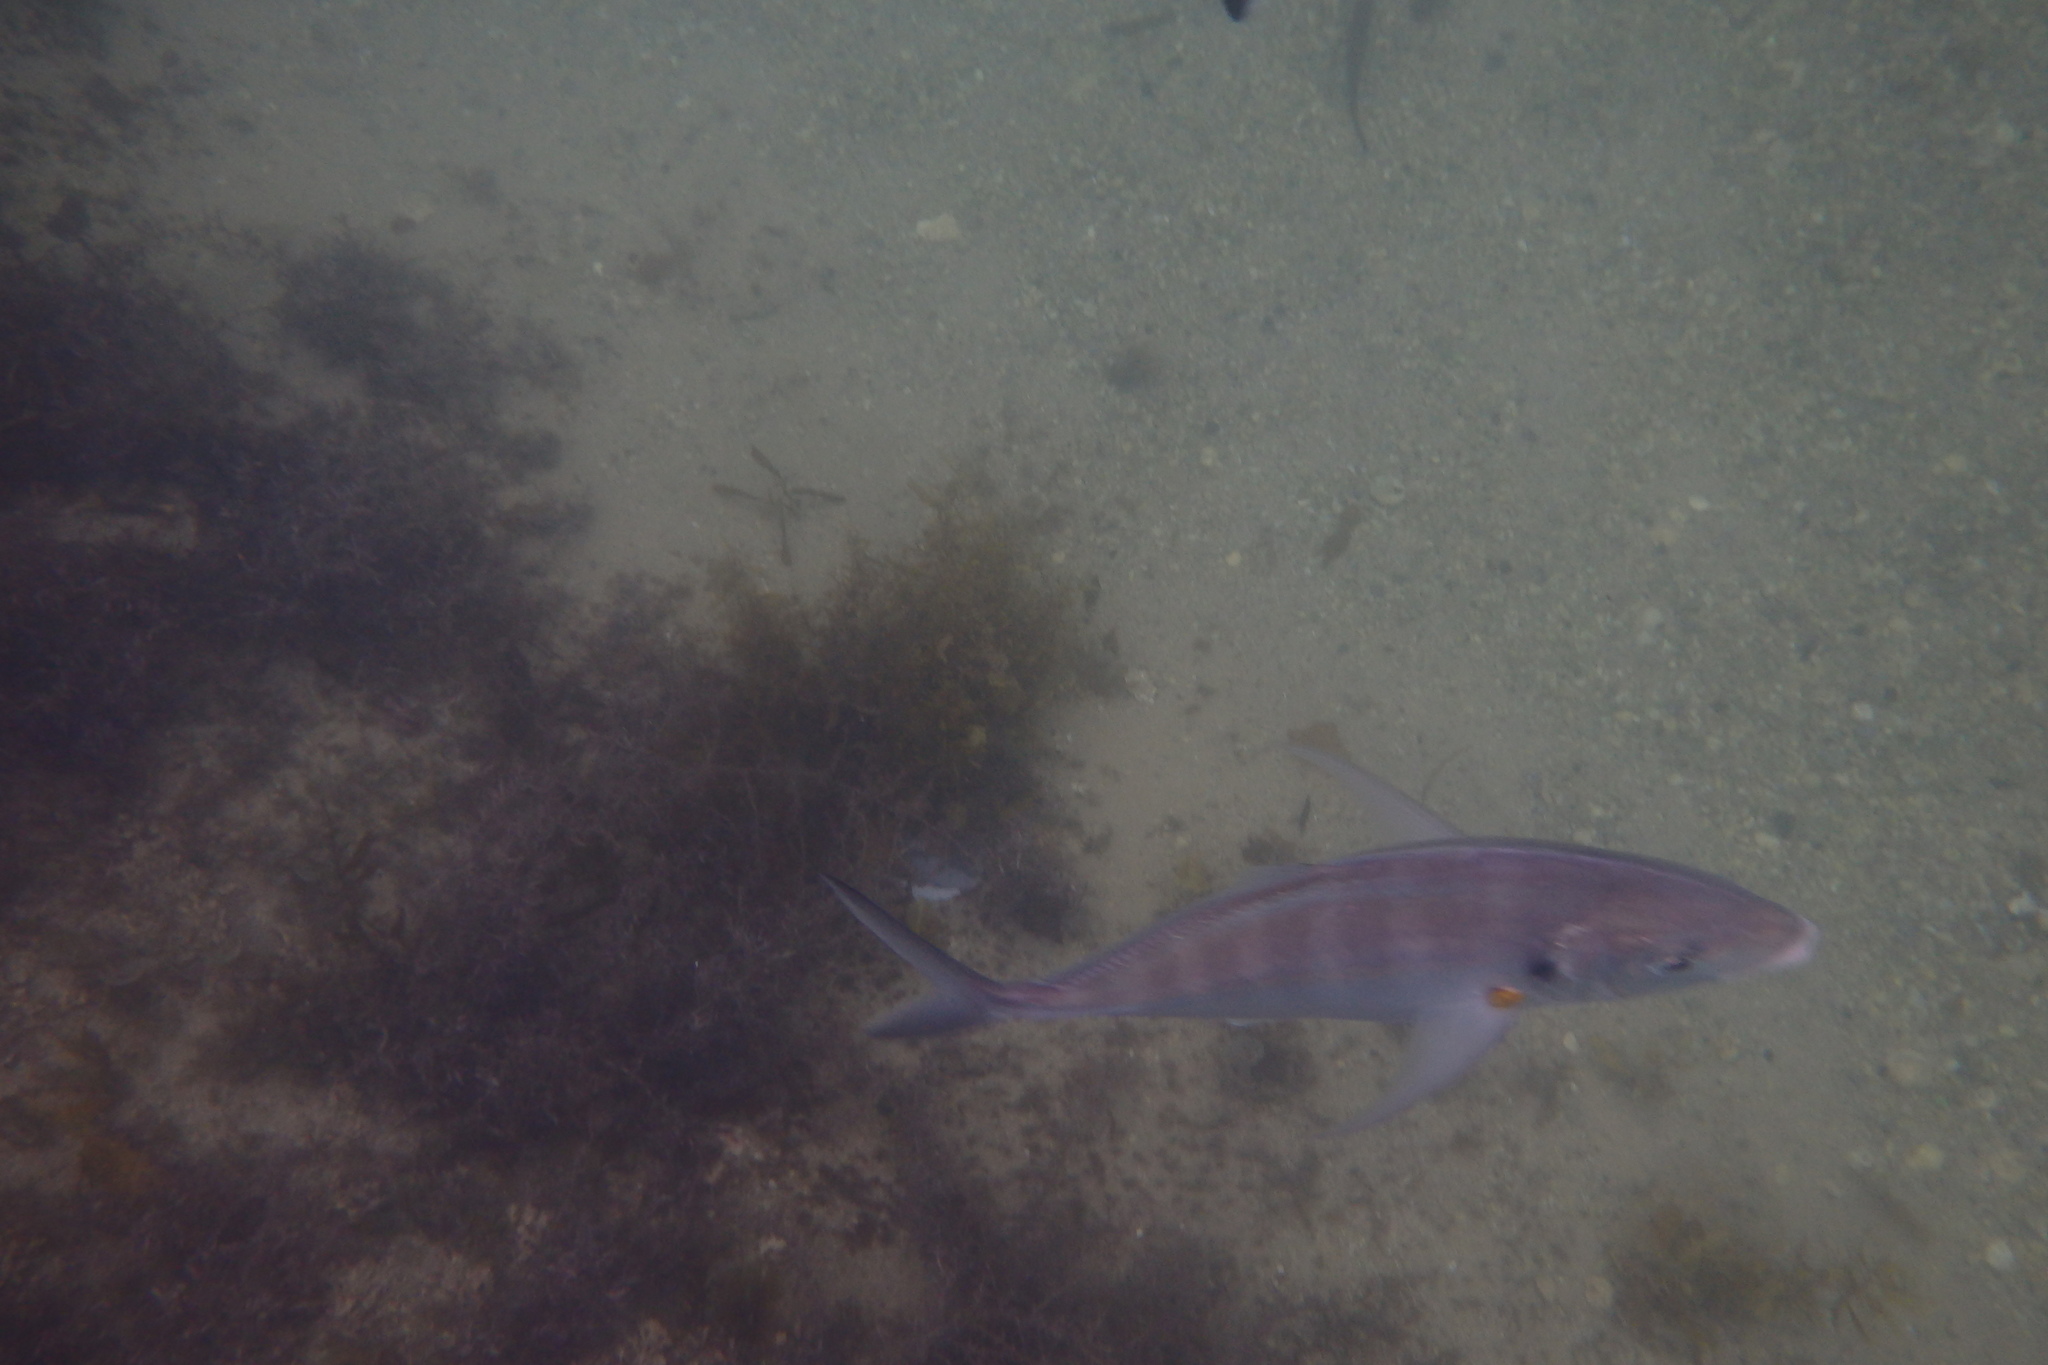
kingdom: Animalia
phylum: Chordata
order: Perciformes
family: Carangidae
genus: Pseudocaranx
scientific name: Pseudocaranx dentex
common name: White trevally
